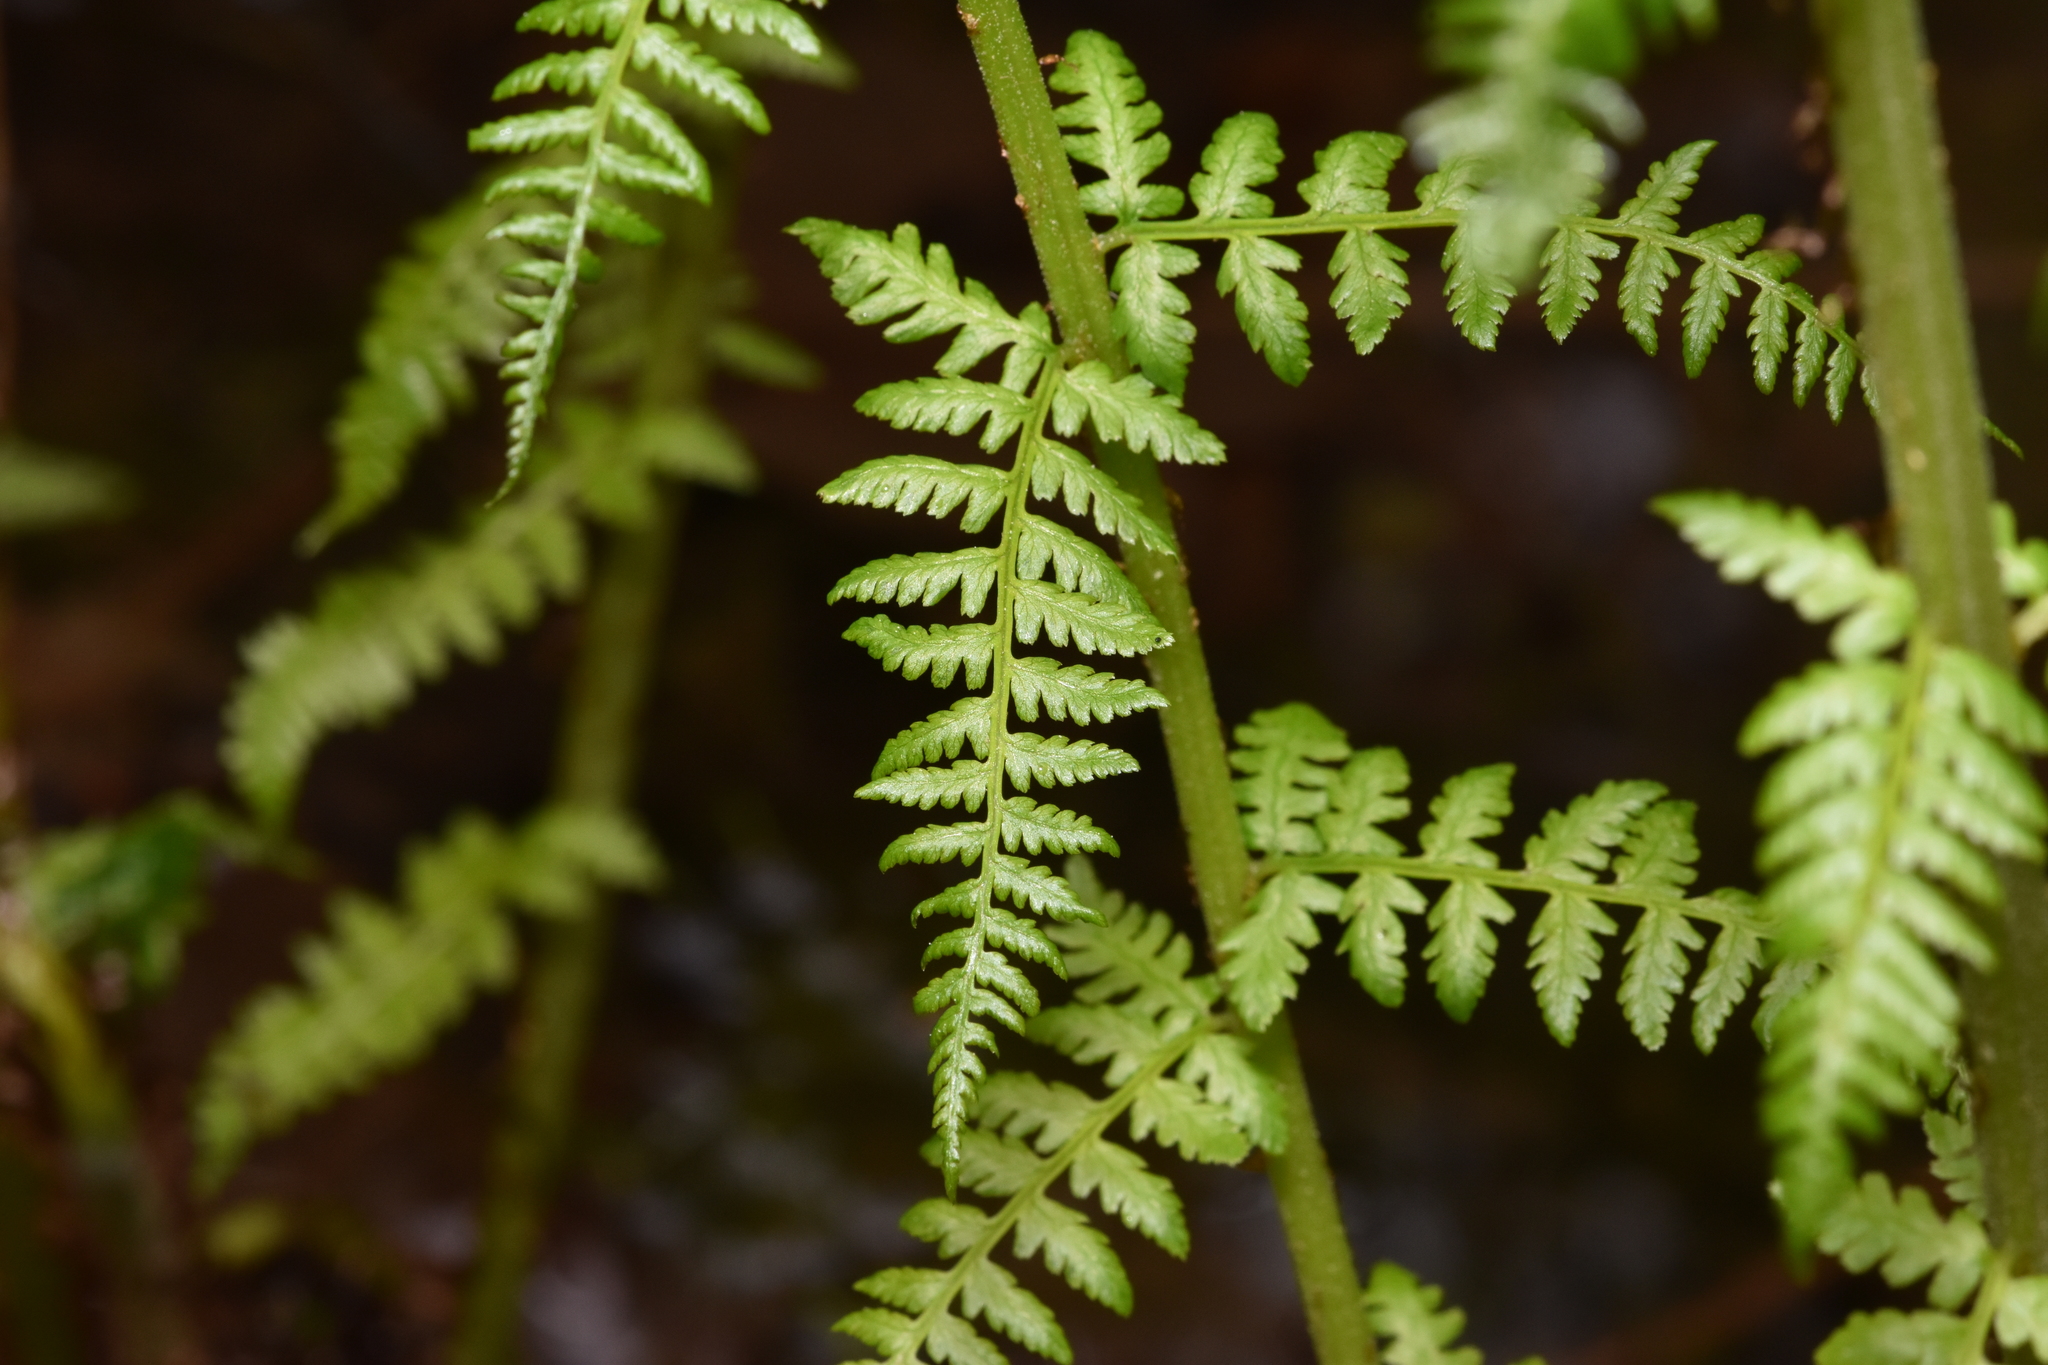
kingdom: Plantae
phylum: Tracheophyta
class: Polypodiopsida
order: Polypodiales
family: Athyriaceae
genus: Athyrium
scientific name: Athyrium filix-femina
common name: Lady fern
